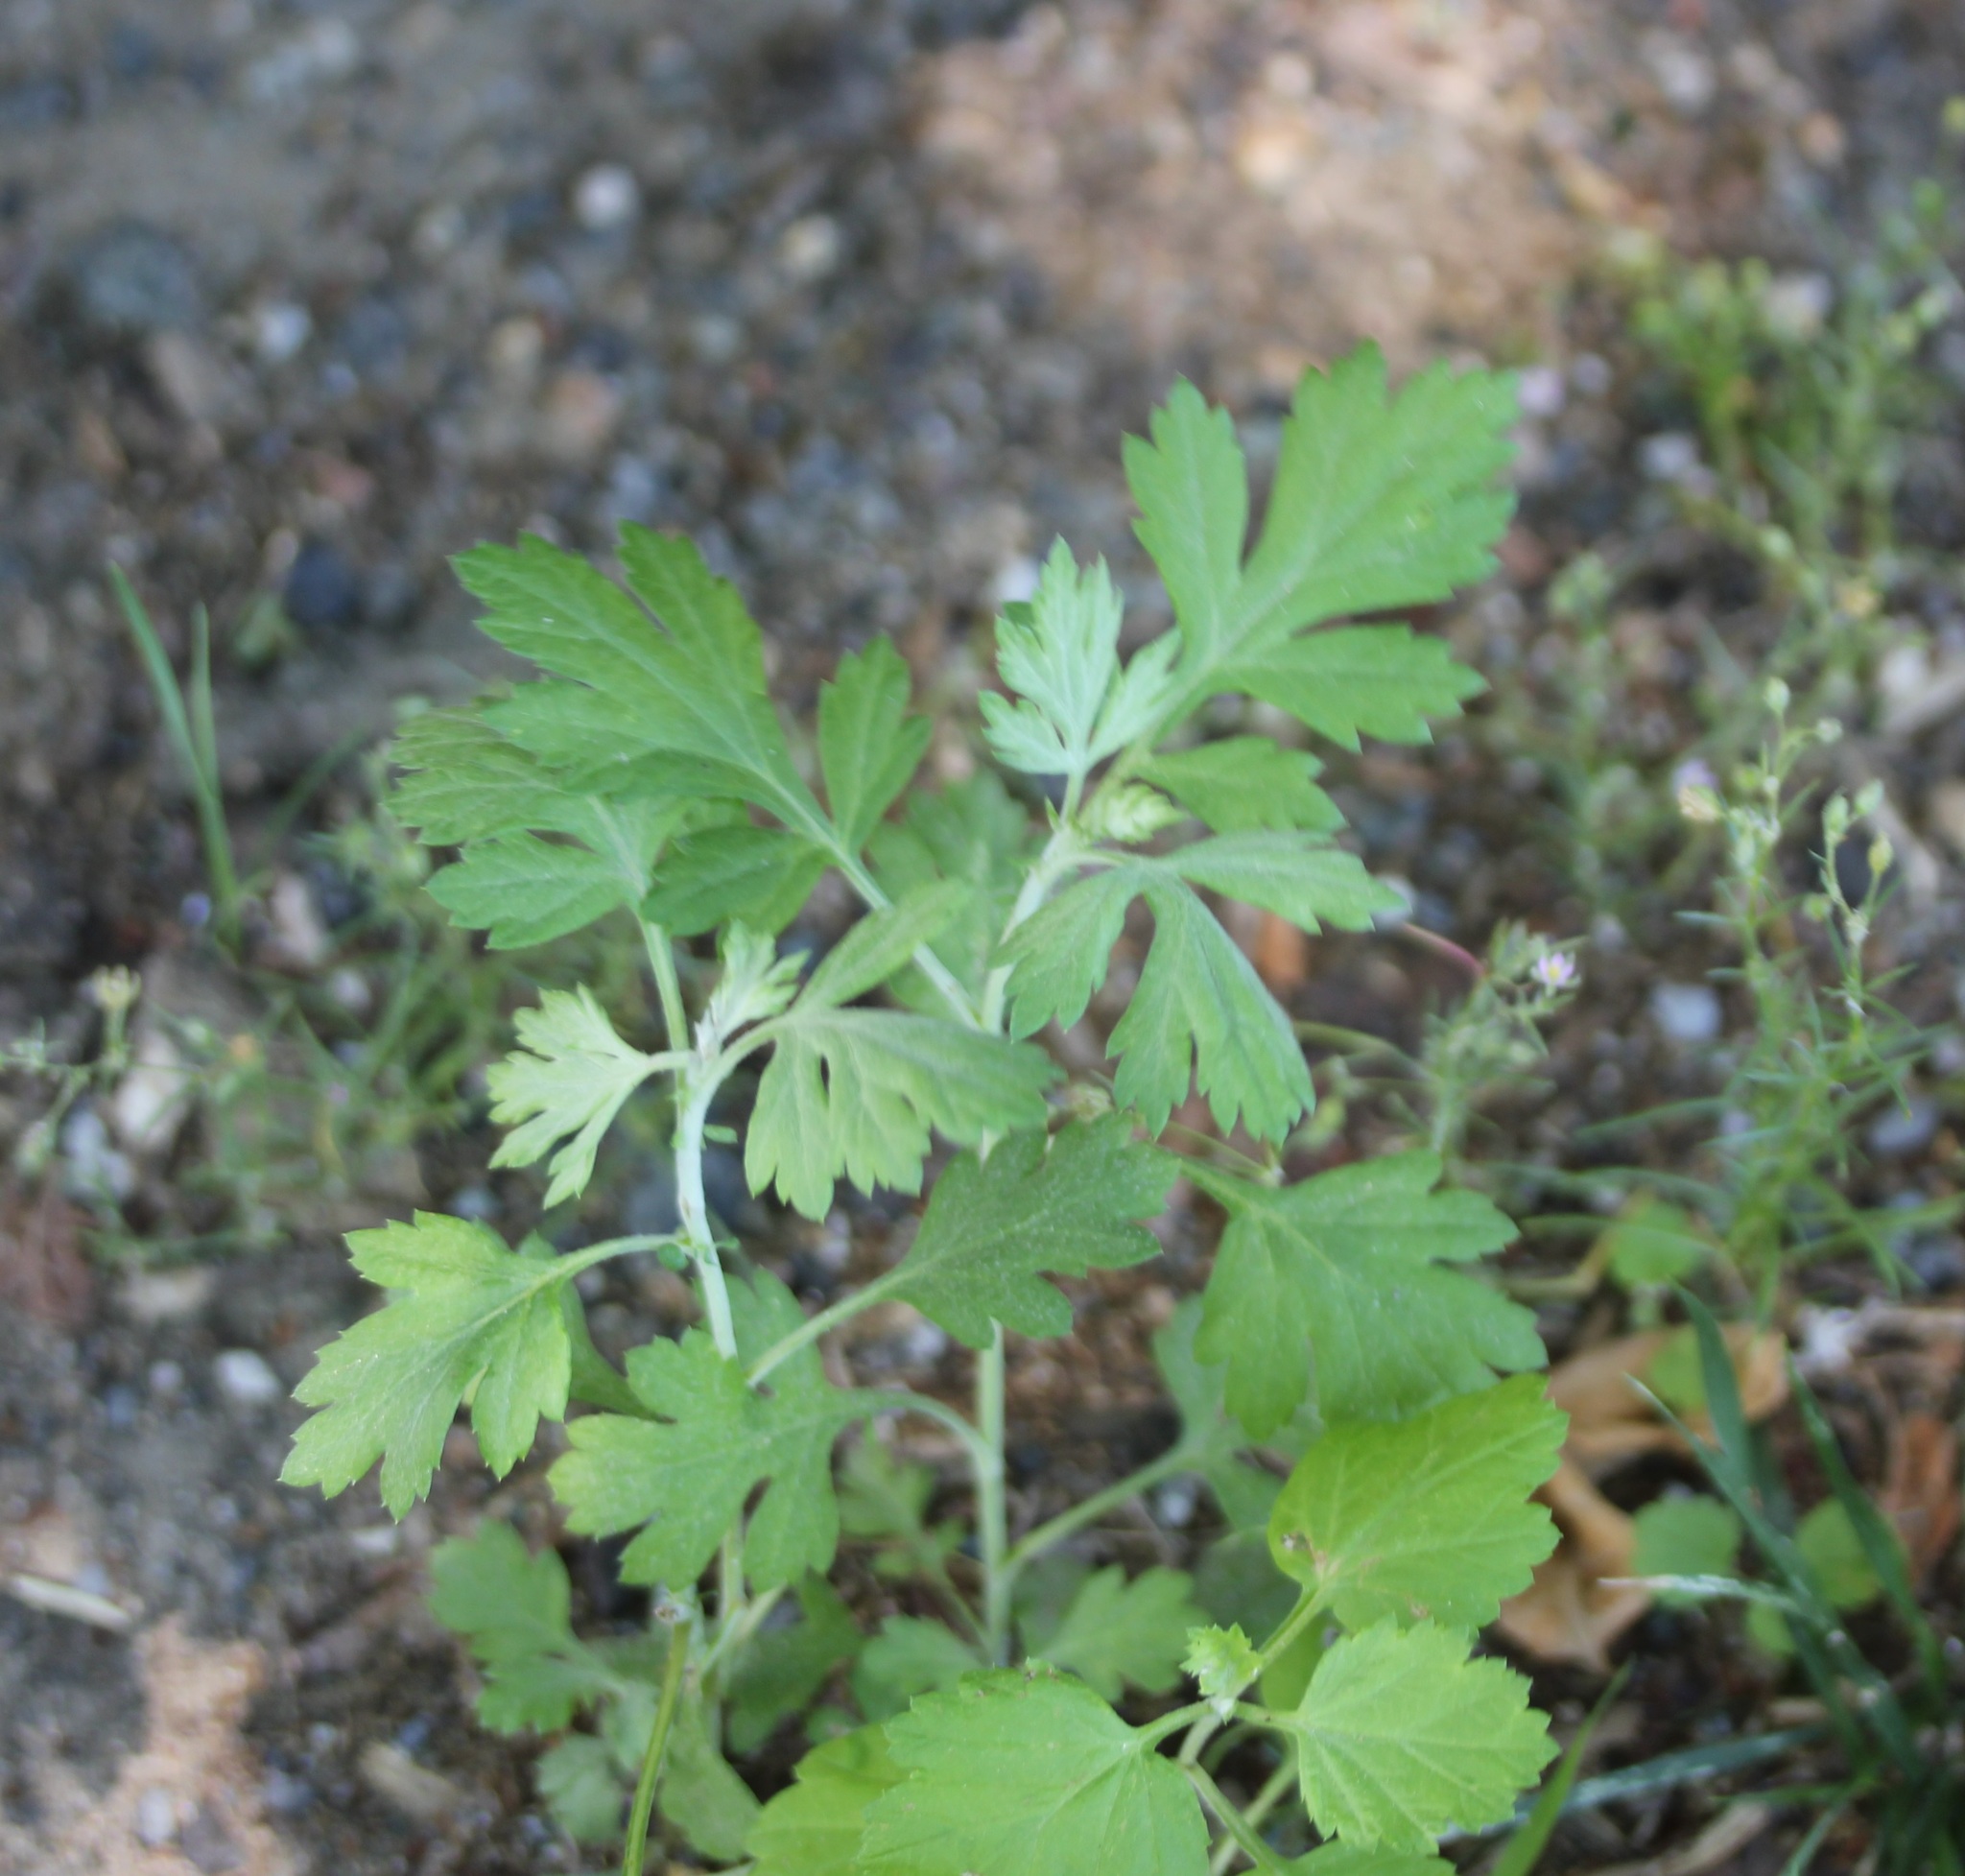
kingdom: Plantae
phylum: Tracheophyta
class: Magnoliopsida
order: Asterales
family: Asteraceae
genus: Artemisia
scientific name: Artemisia vulgaris
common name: Mugwort
